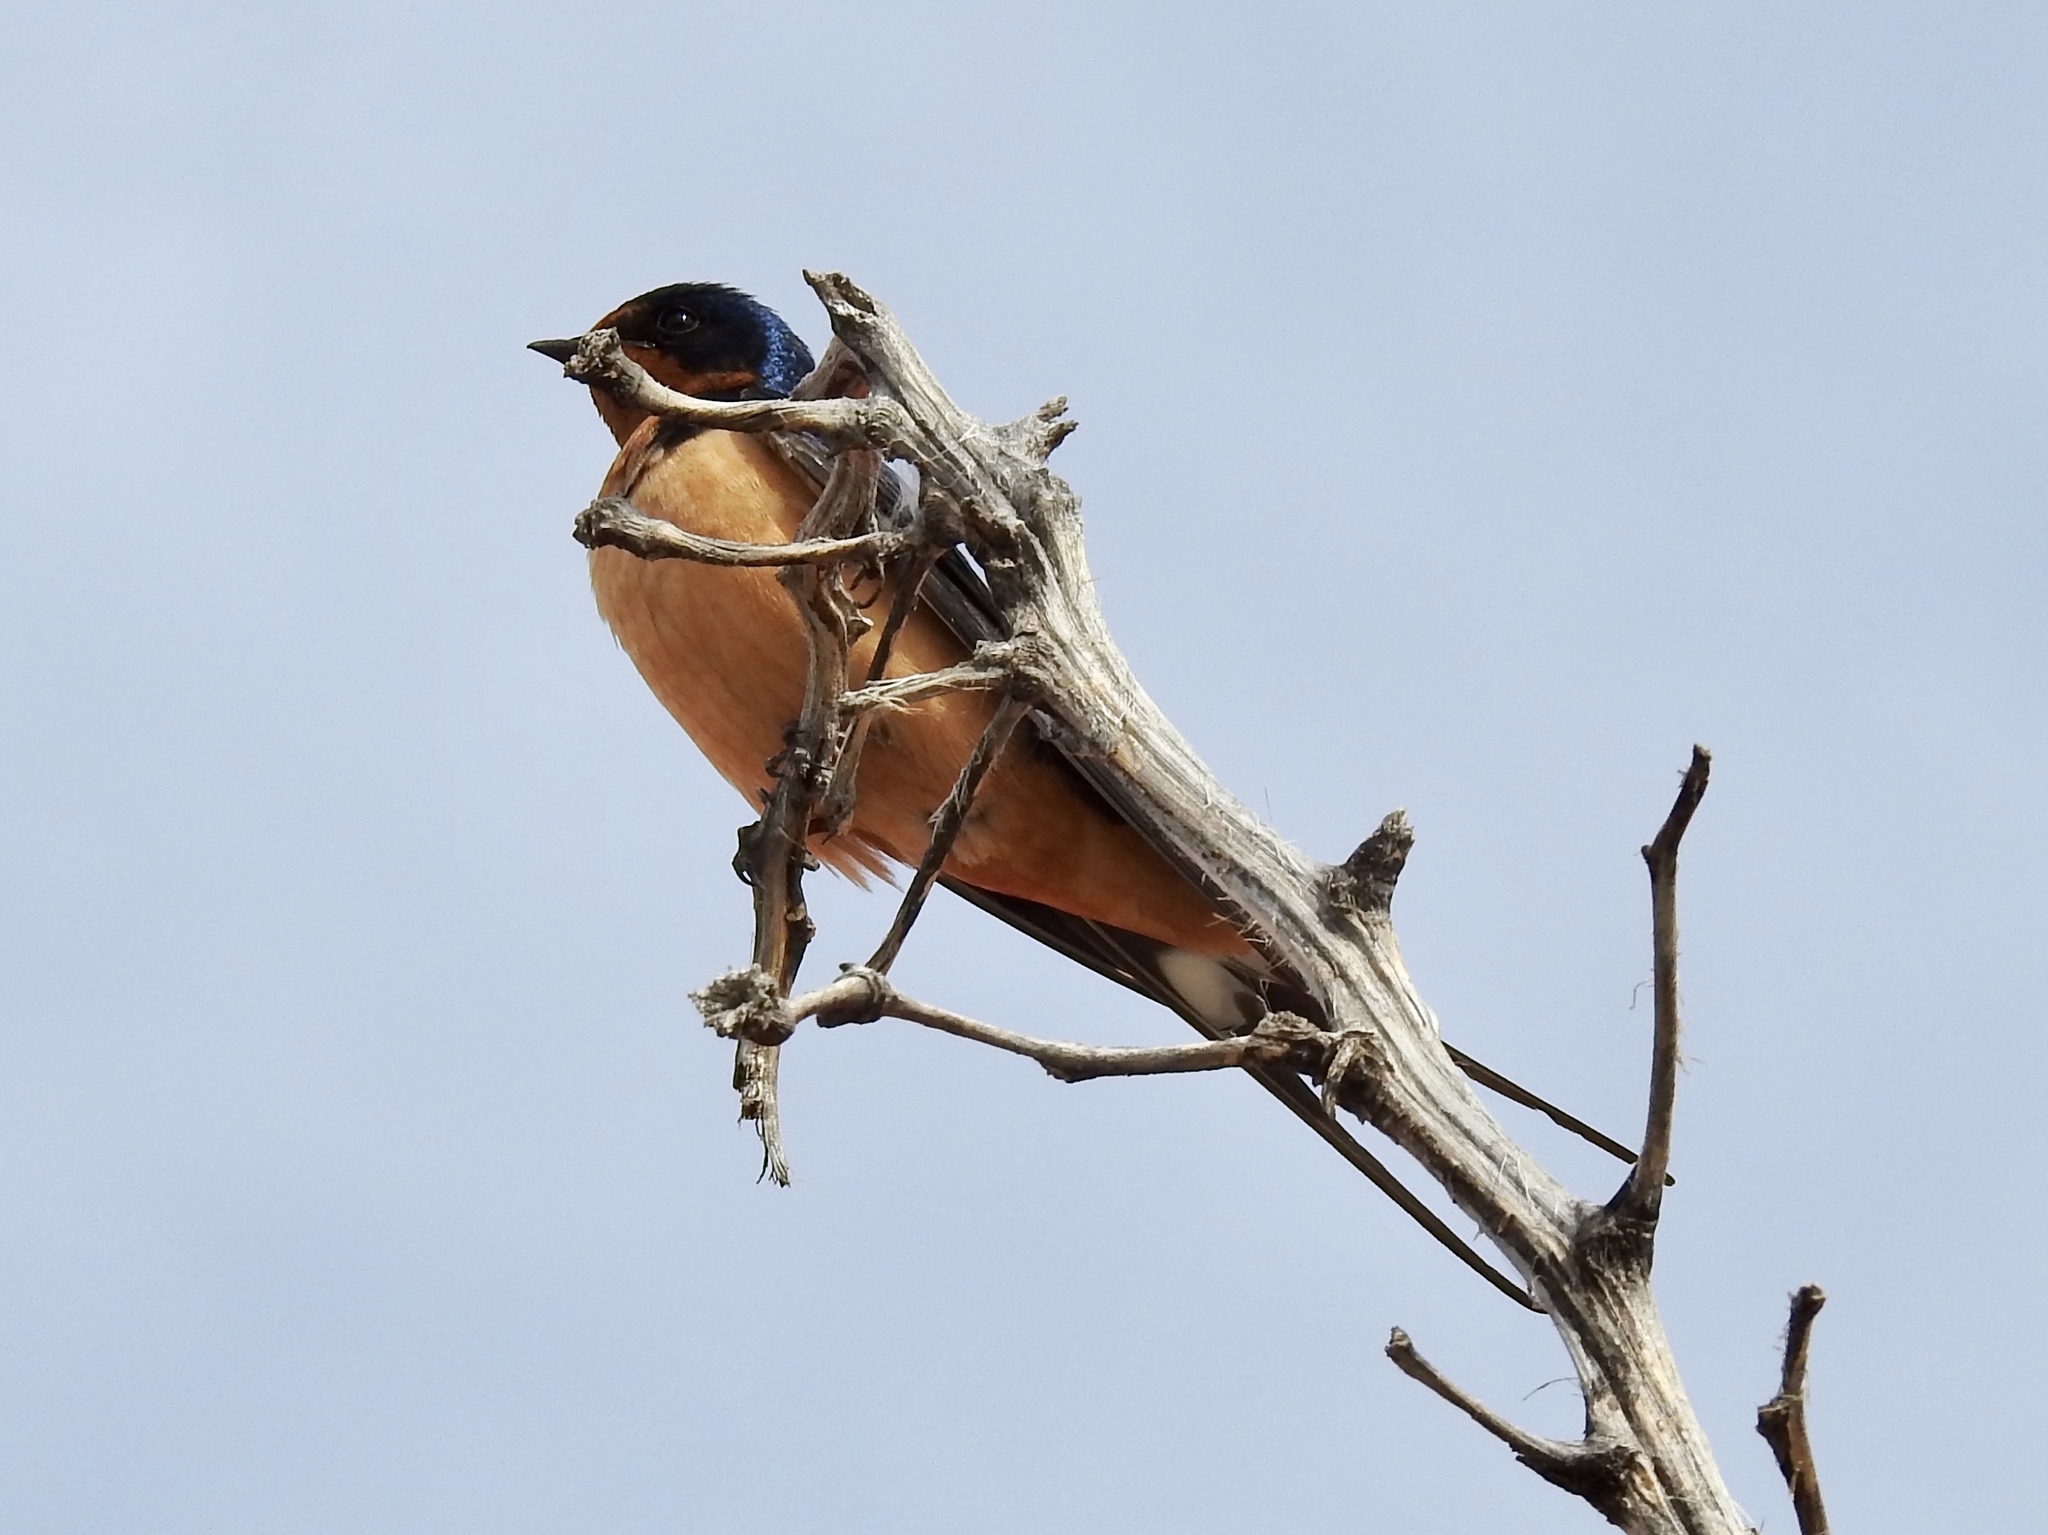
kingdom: Animalia
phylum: Chordata
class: Aves
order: Passeriformes
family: Hirundinidae
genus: Hirundo
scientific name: Hirundo rustica
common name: Barn swallow
